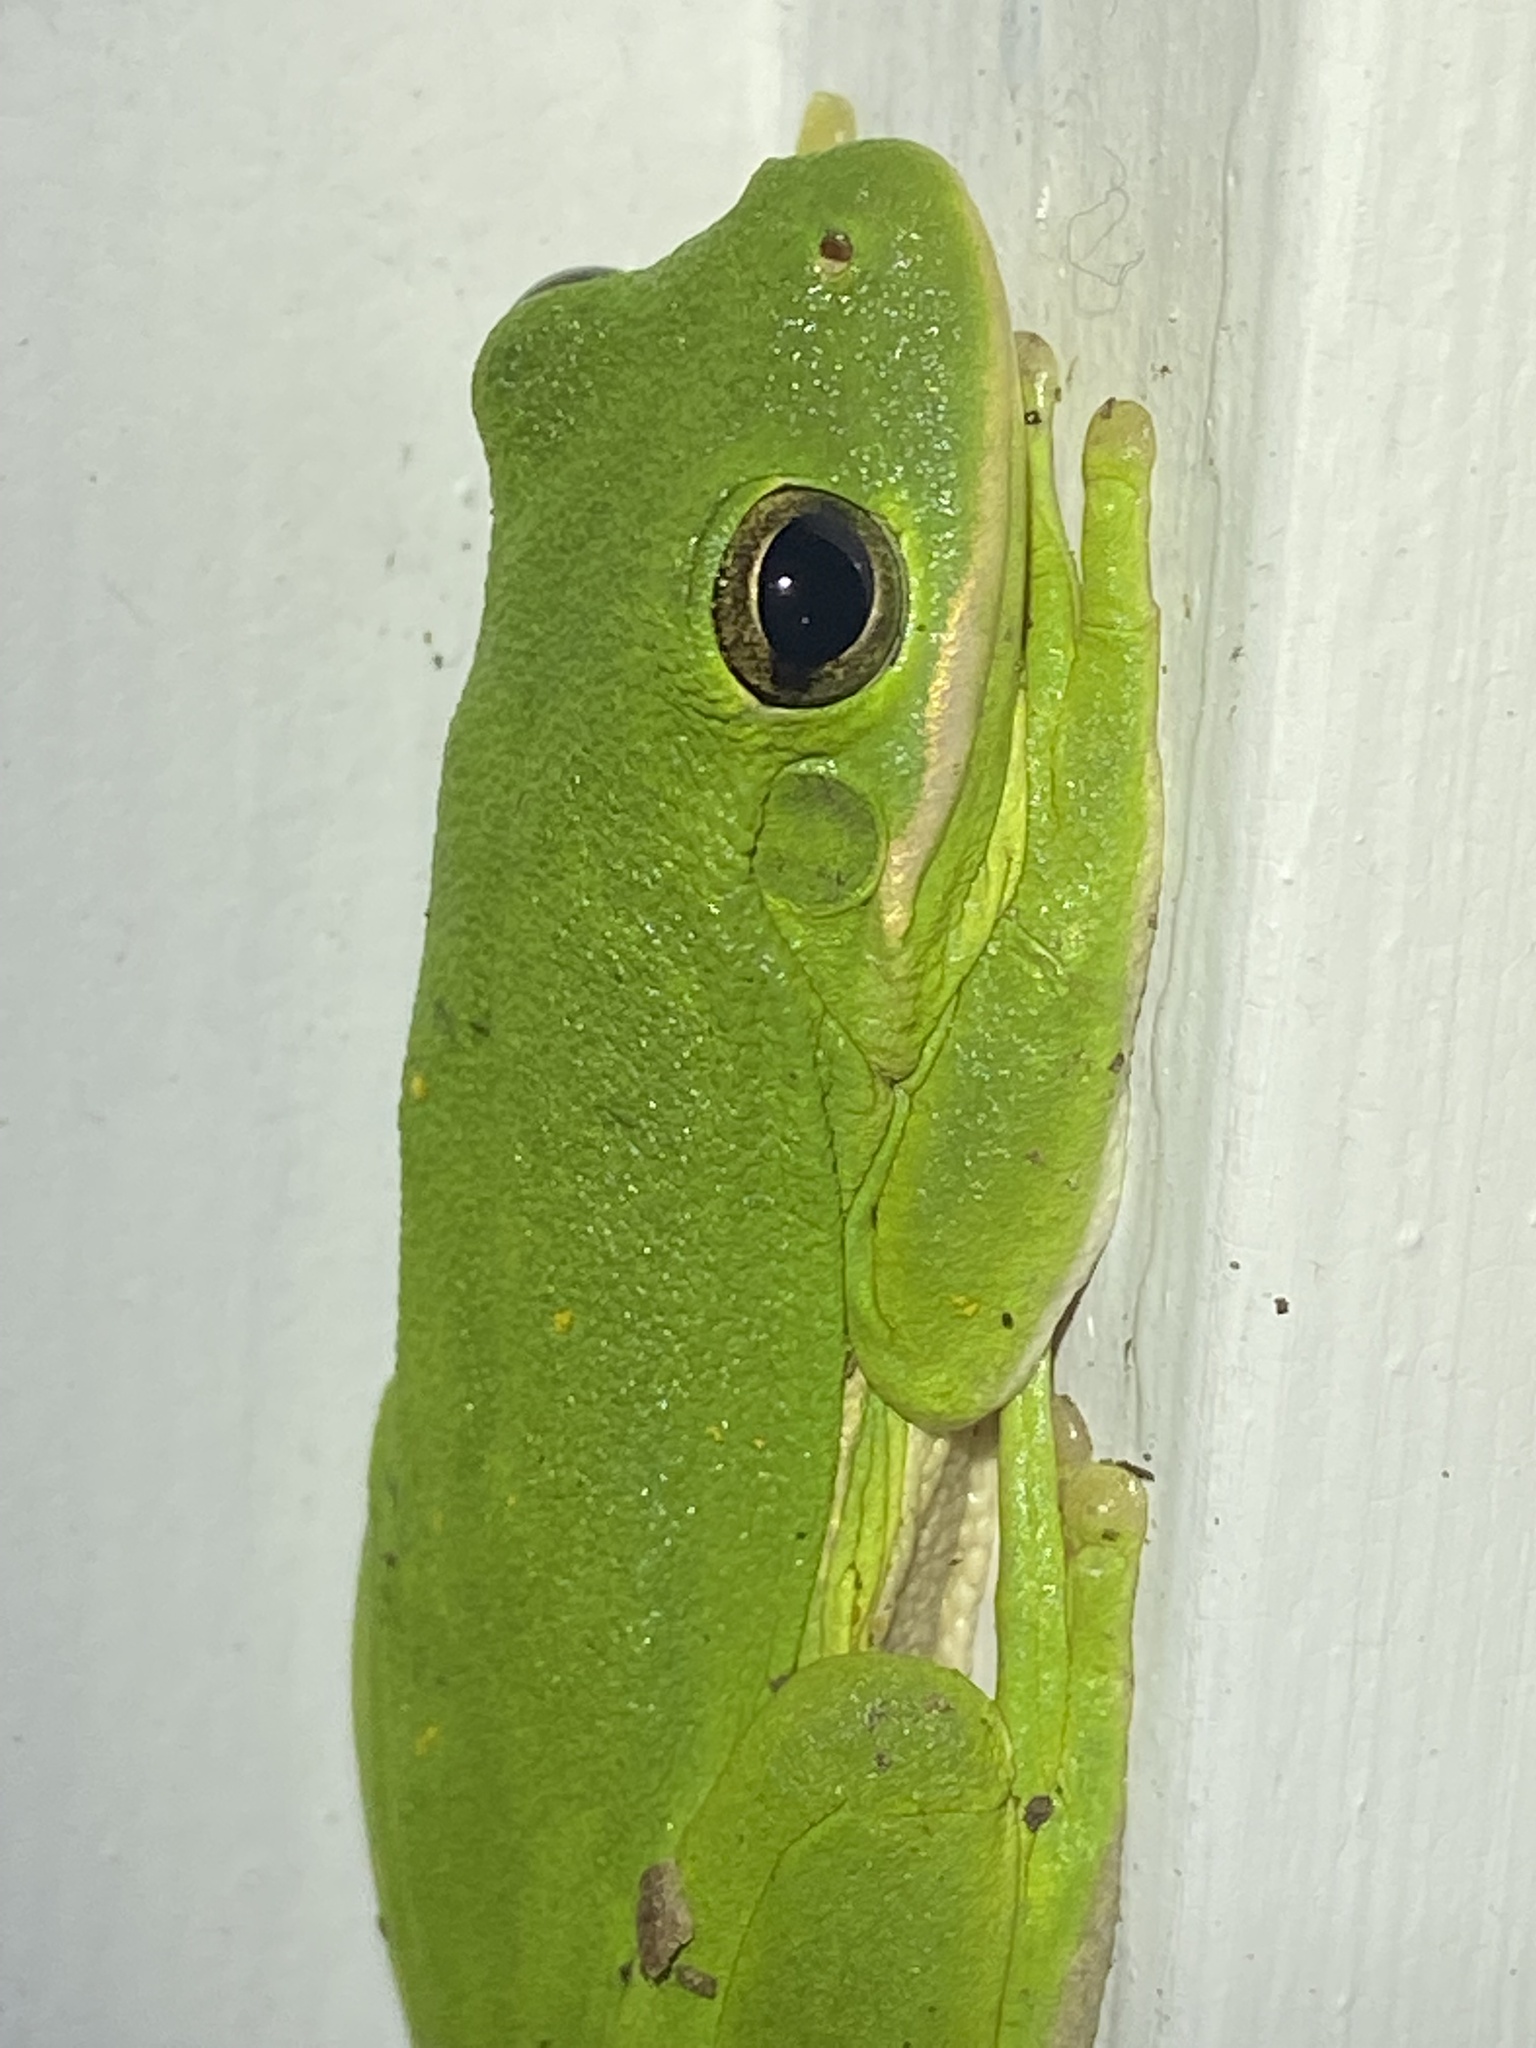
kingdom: Animalia
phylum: Chordata
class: Amphibia
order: Anura
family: Hylidae
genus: Dryophytes
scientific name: Dryophytes cinereus
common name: Green treefrog
